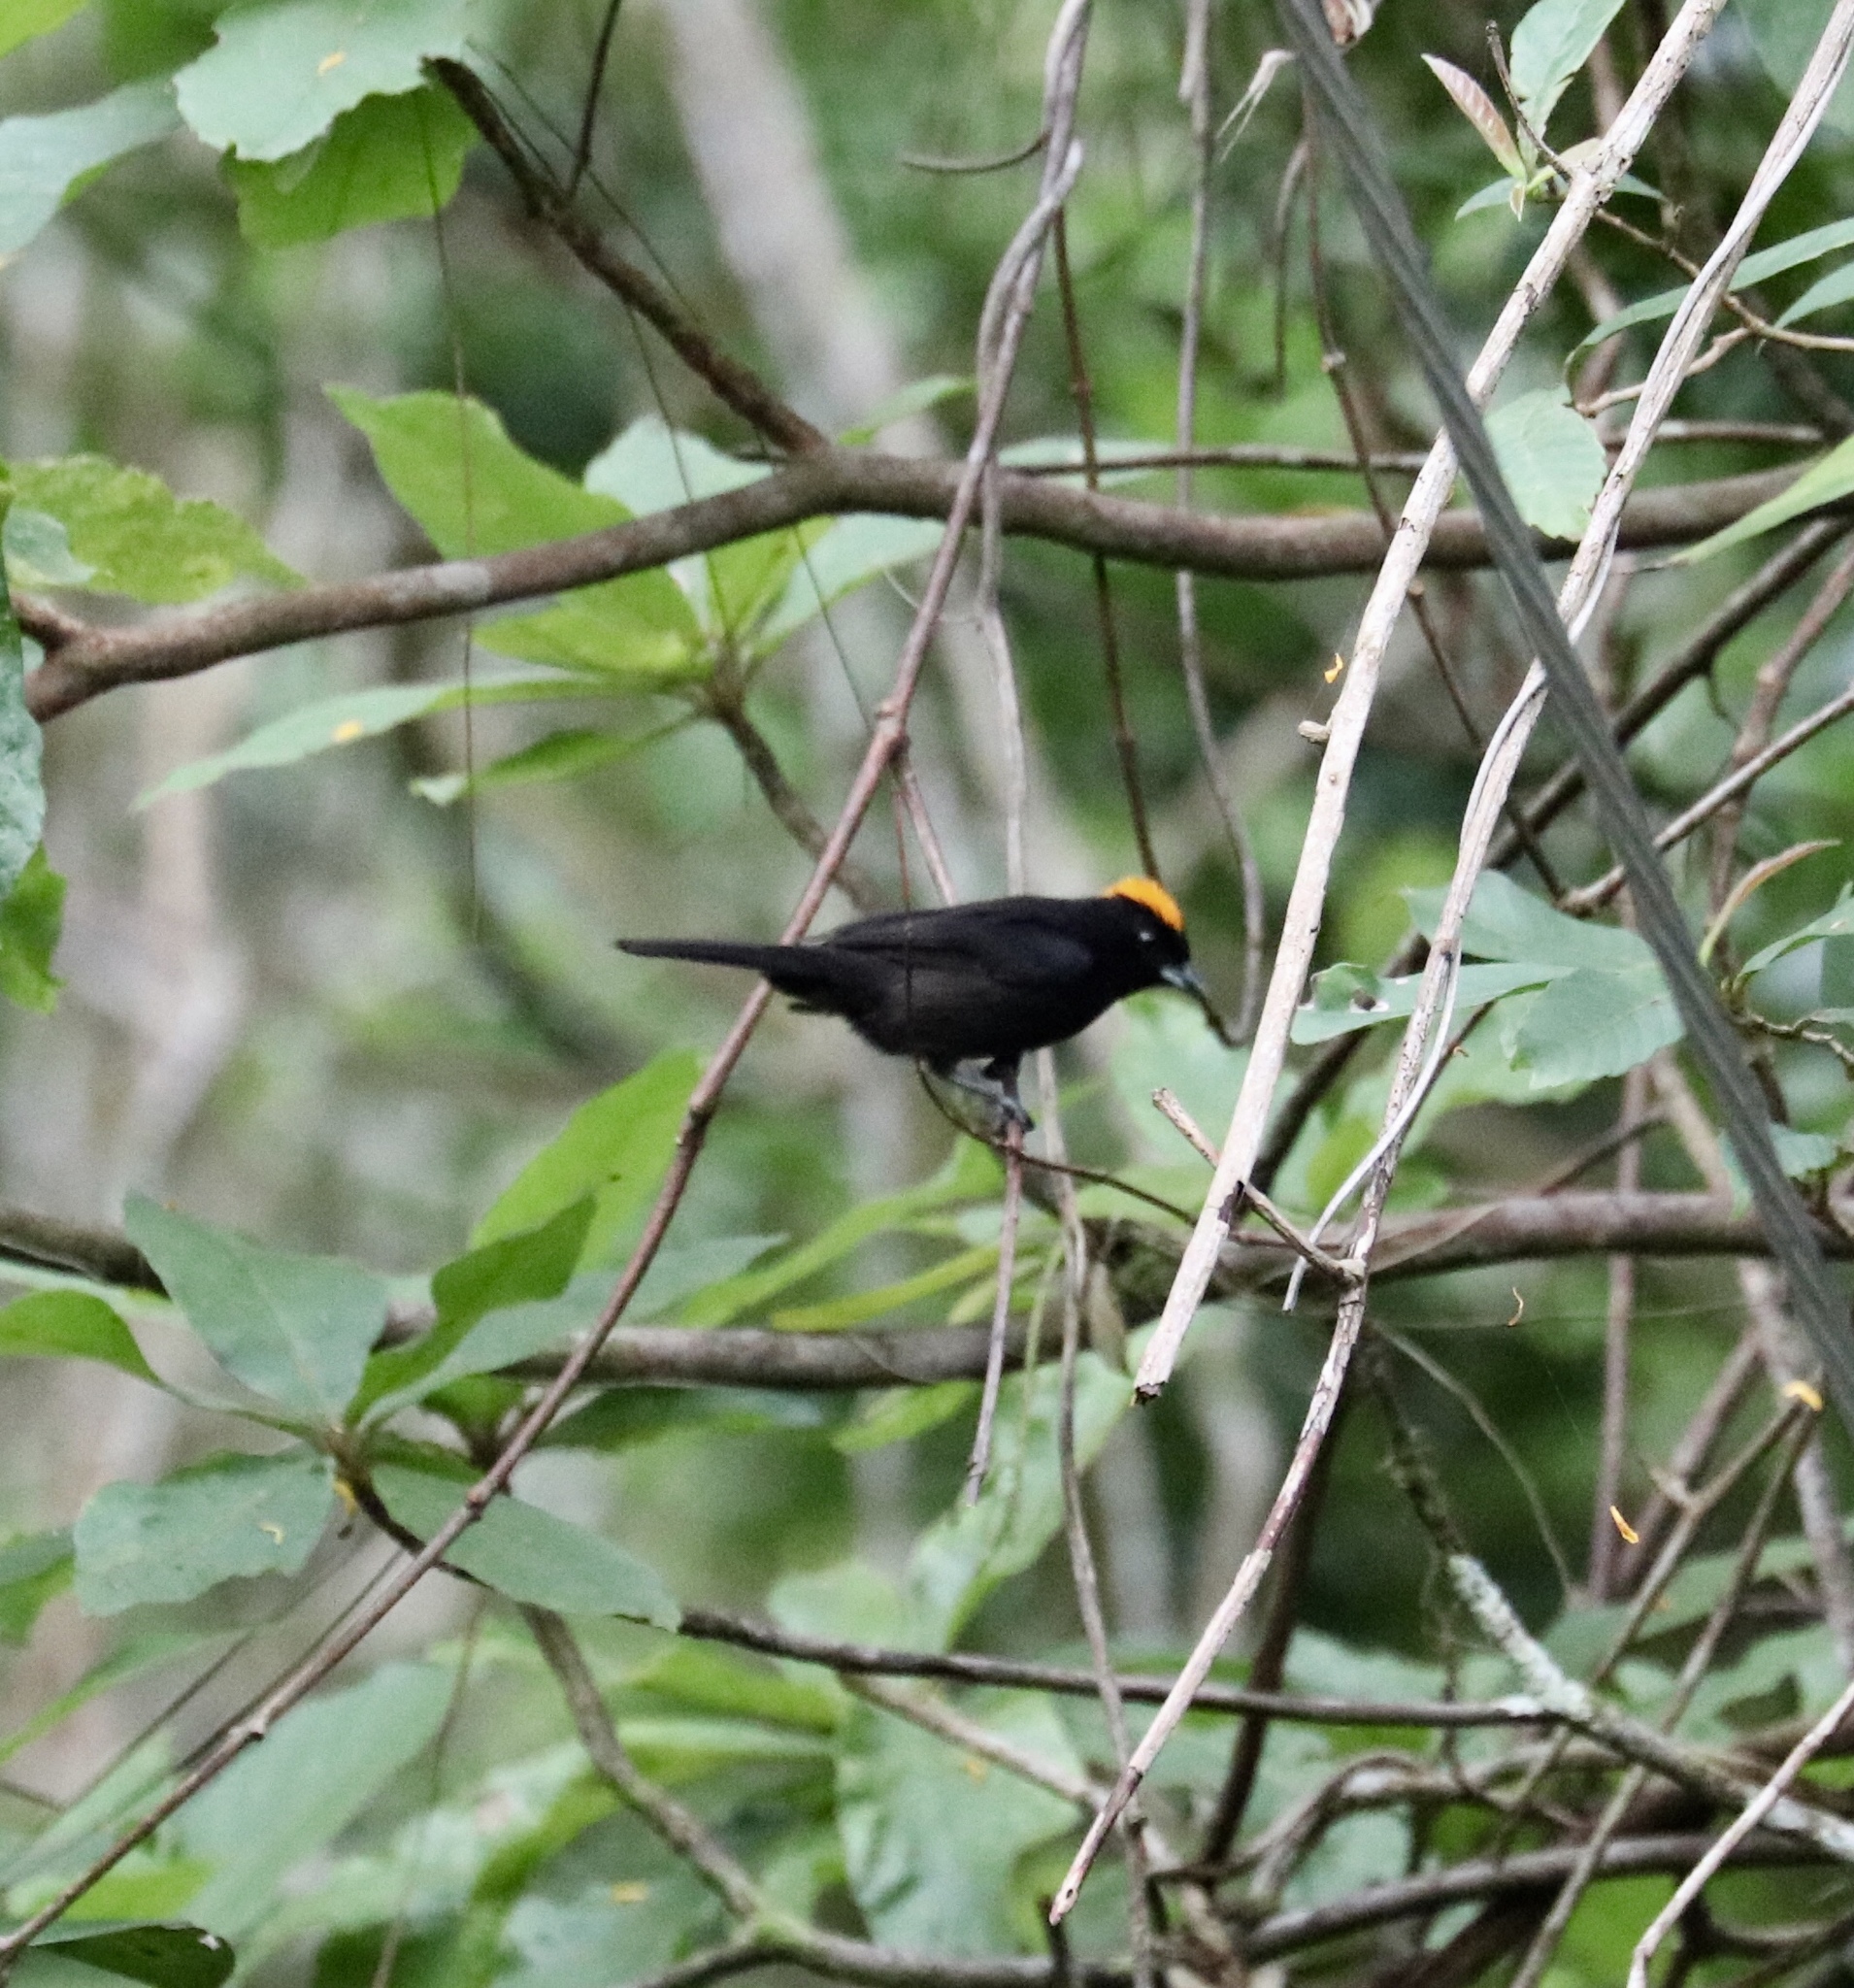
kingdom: Animalia
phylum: Chordata
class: Aves
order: Passeriformes
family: Thraupidae
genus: Tachyphonus
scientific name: Tachyphonus delatrii
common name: Tawny-crested tanager
